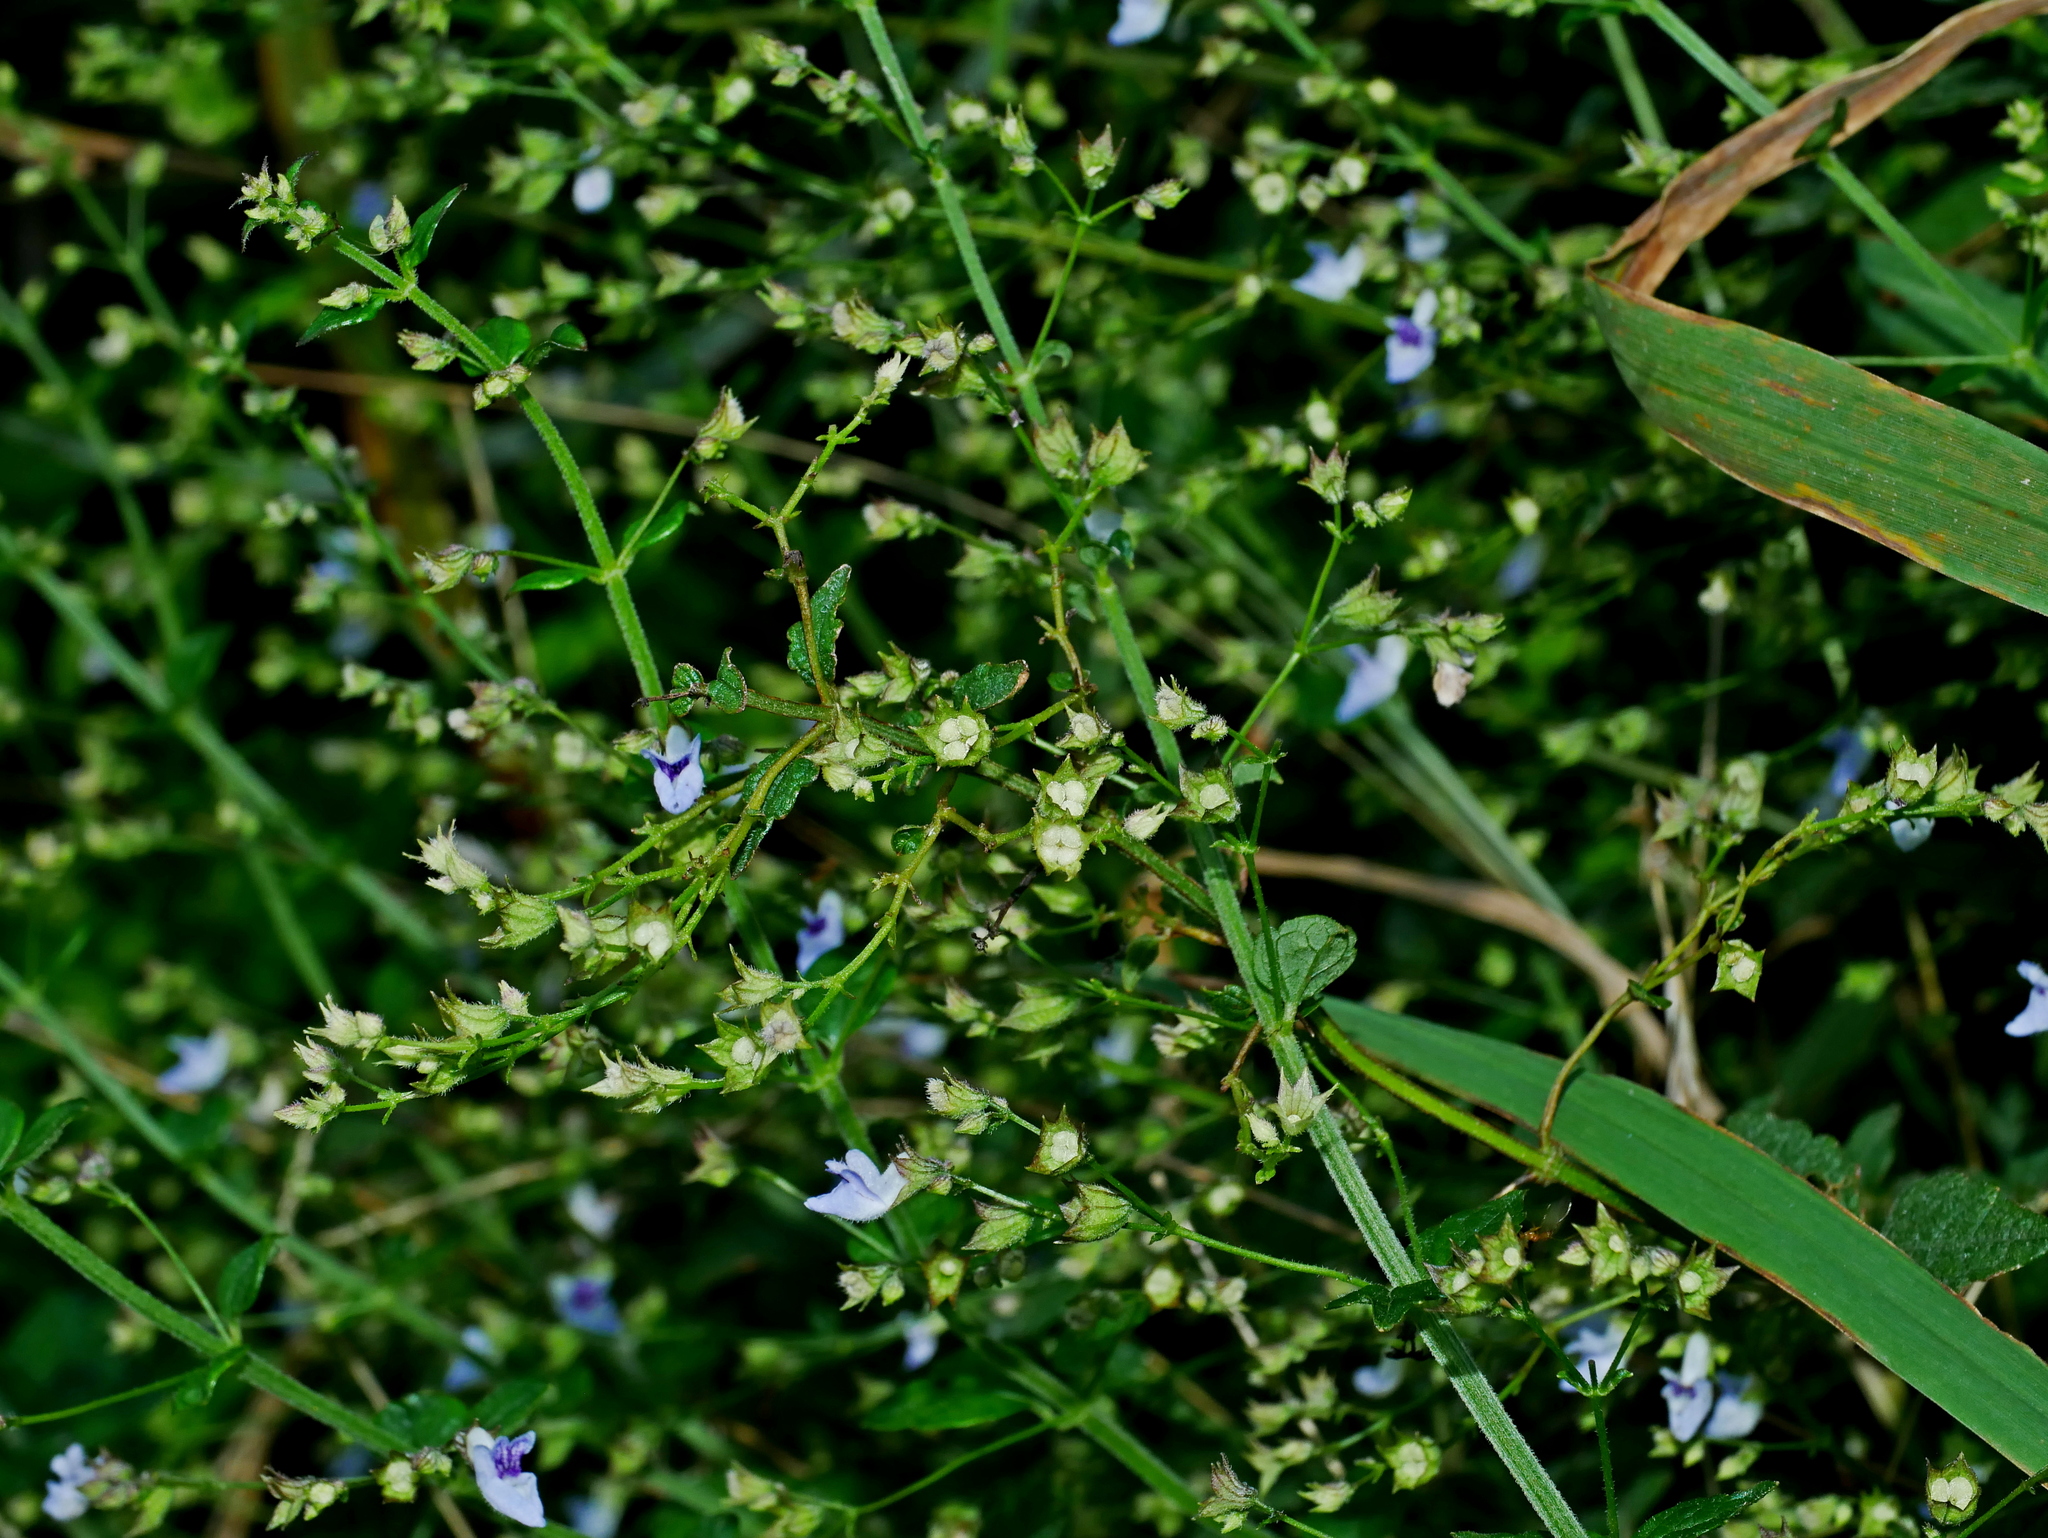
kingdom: Plantae
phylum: Tracheophyta
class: Magnoliopsida
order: Lamiales
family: Lamiaceae
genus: Isodon
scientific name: Isodon amethystoides
